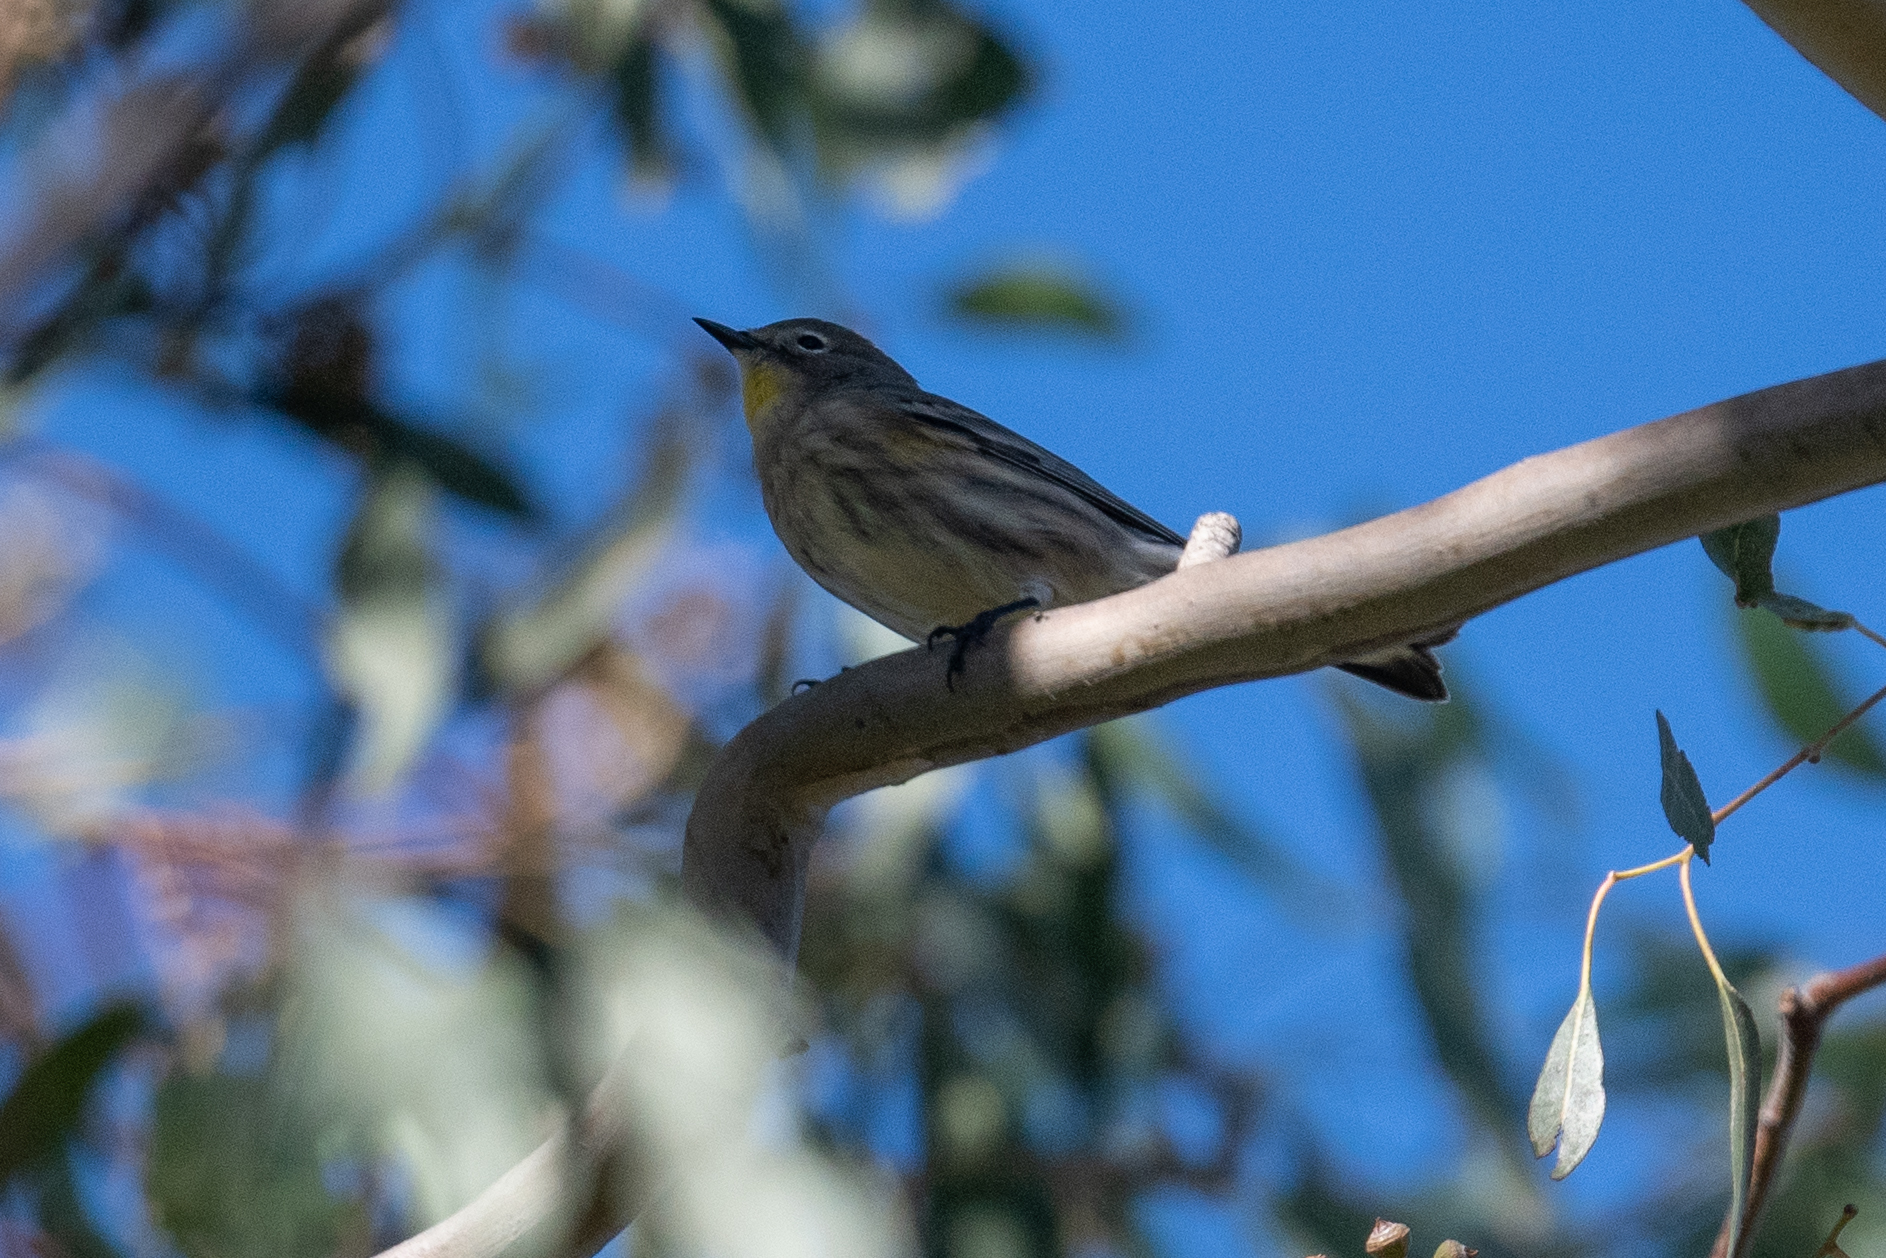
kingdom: Animalia
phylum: Chordata
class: Aves
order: Passeriformes
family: Parulidae
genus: Setophaga
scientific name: Setophaga coronata
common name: Myrtle warbler
